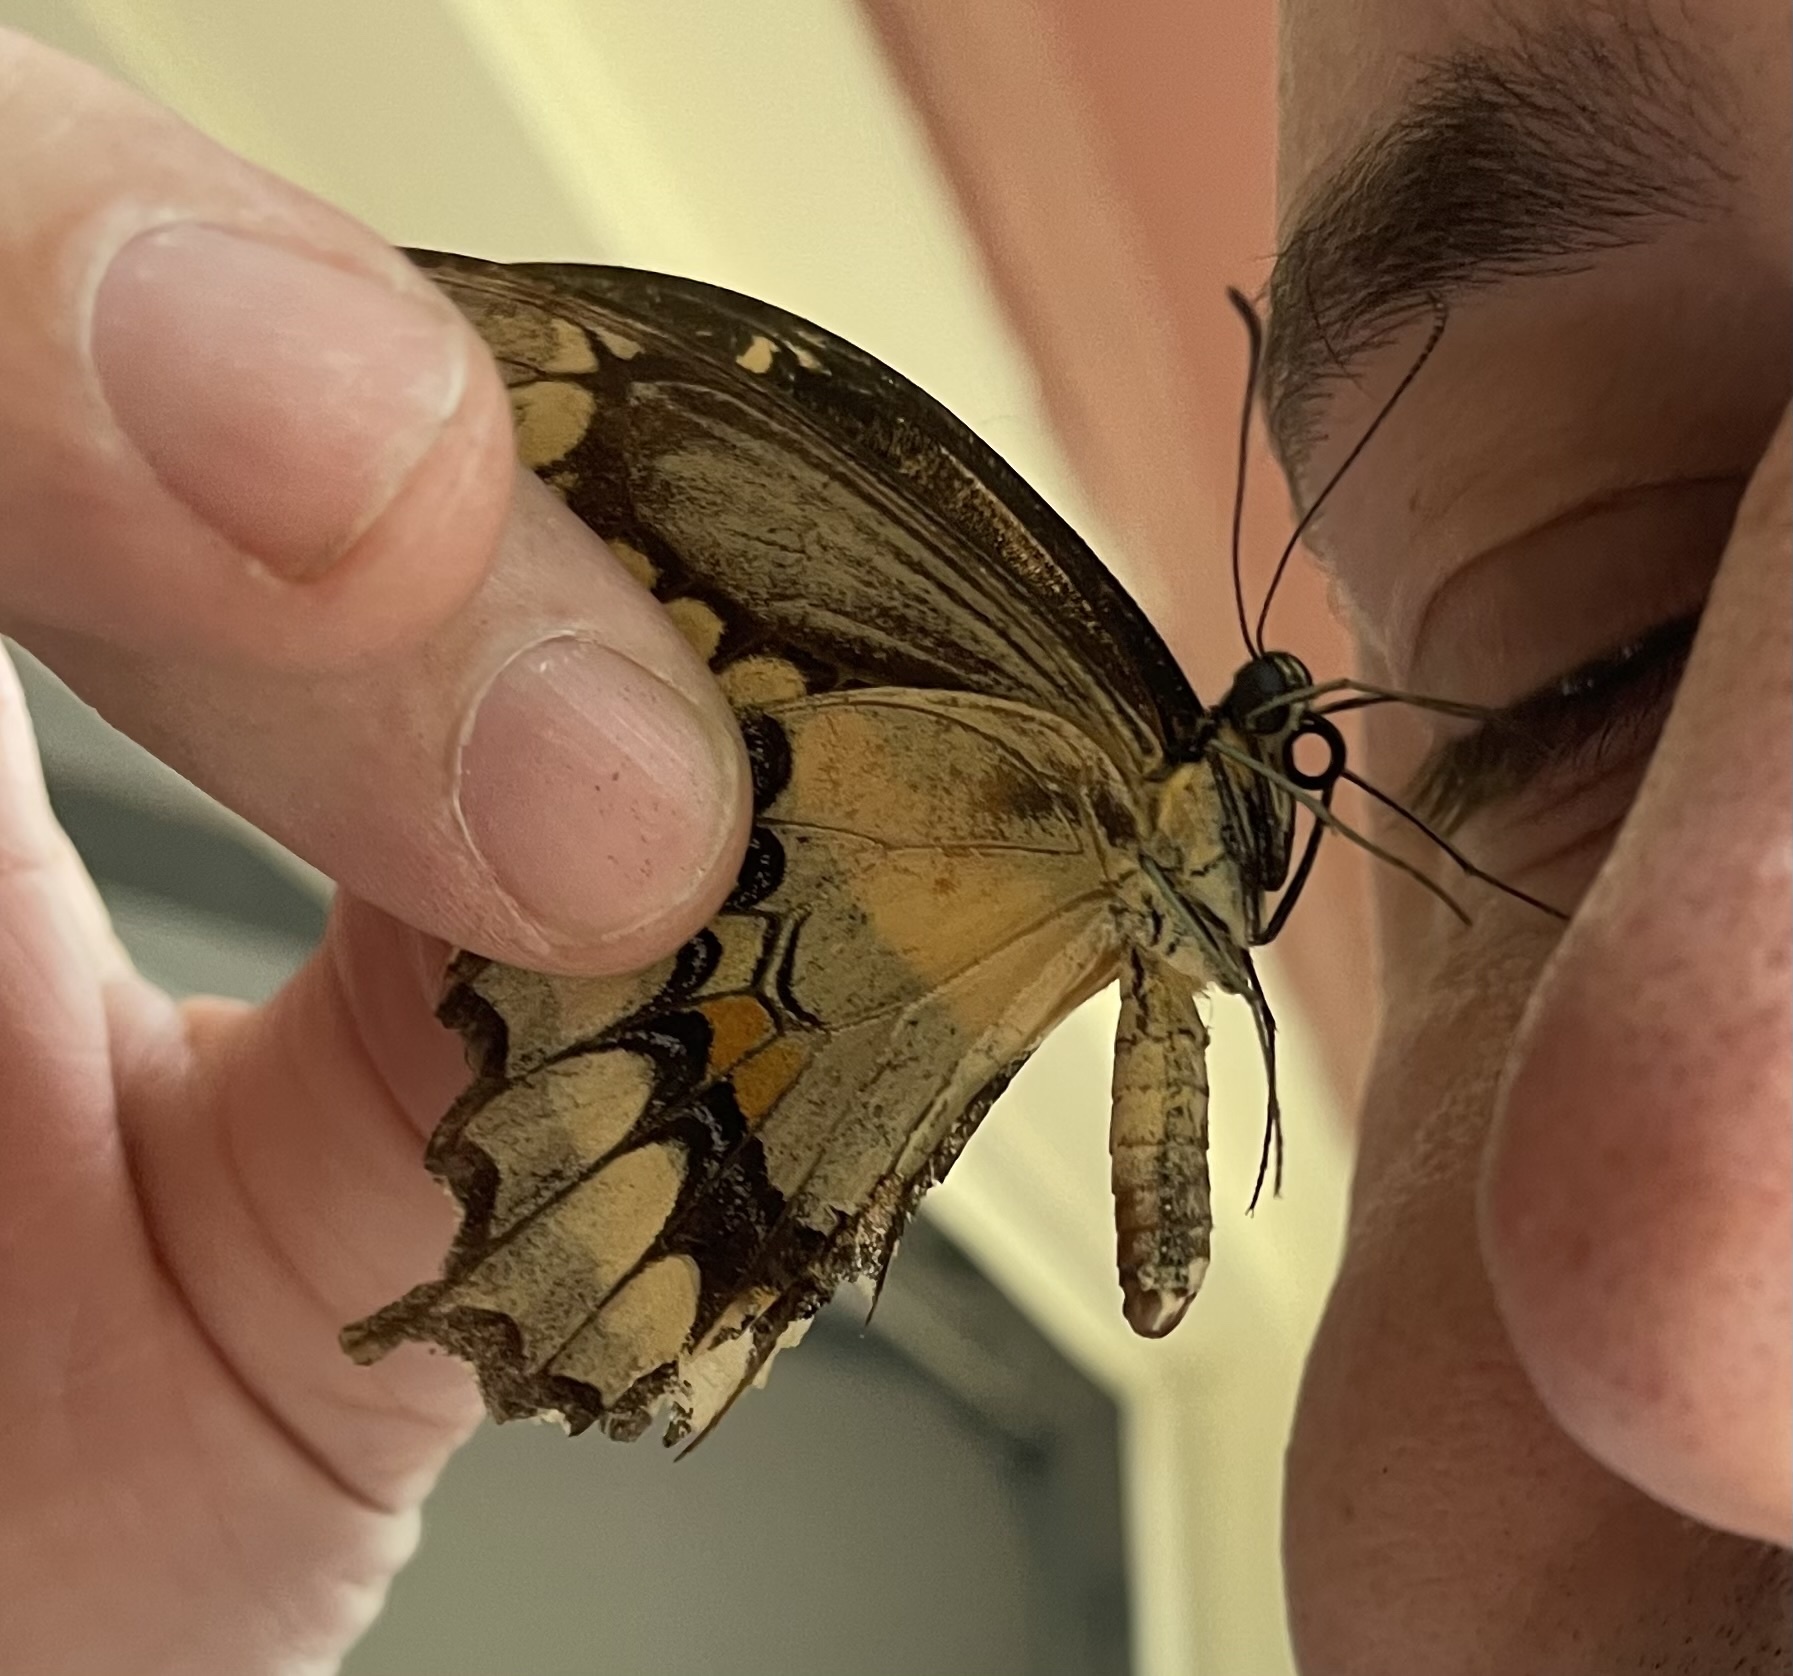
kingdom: Animalia
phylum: Arthropoda
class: Insecta
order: Lepidoptera
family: Papilionidae
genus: Papilio
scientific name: Papilio cresphontes
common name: Giant swallowtail
